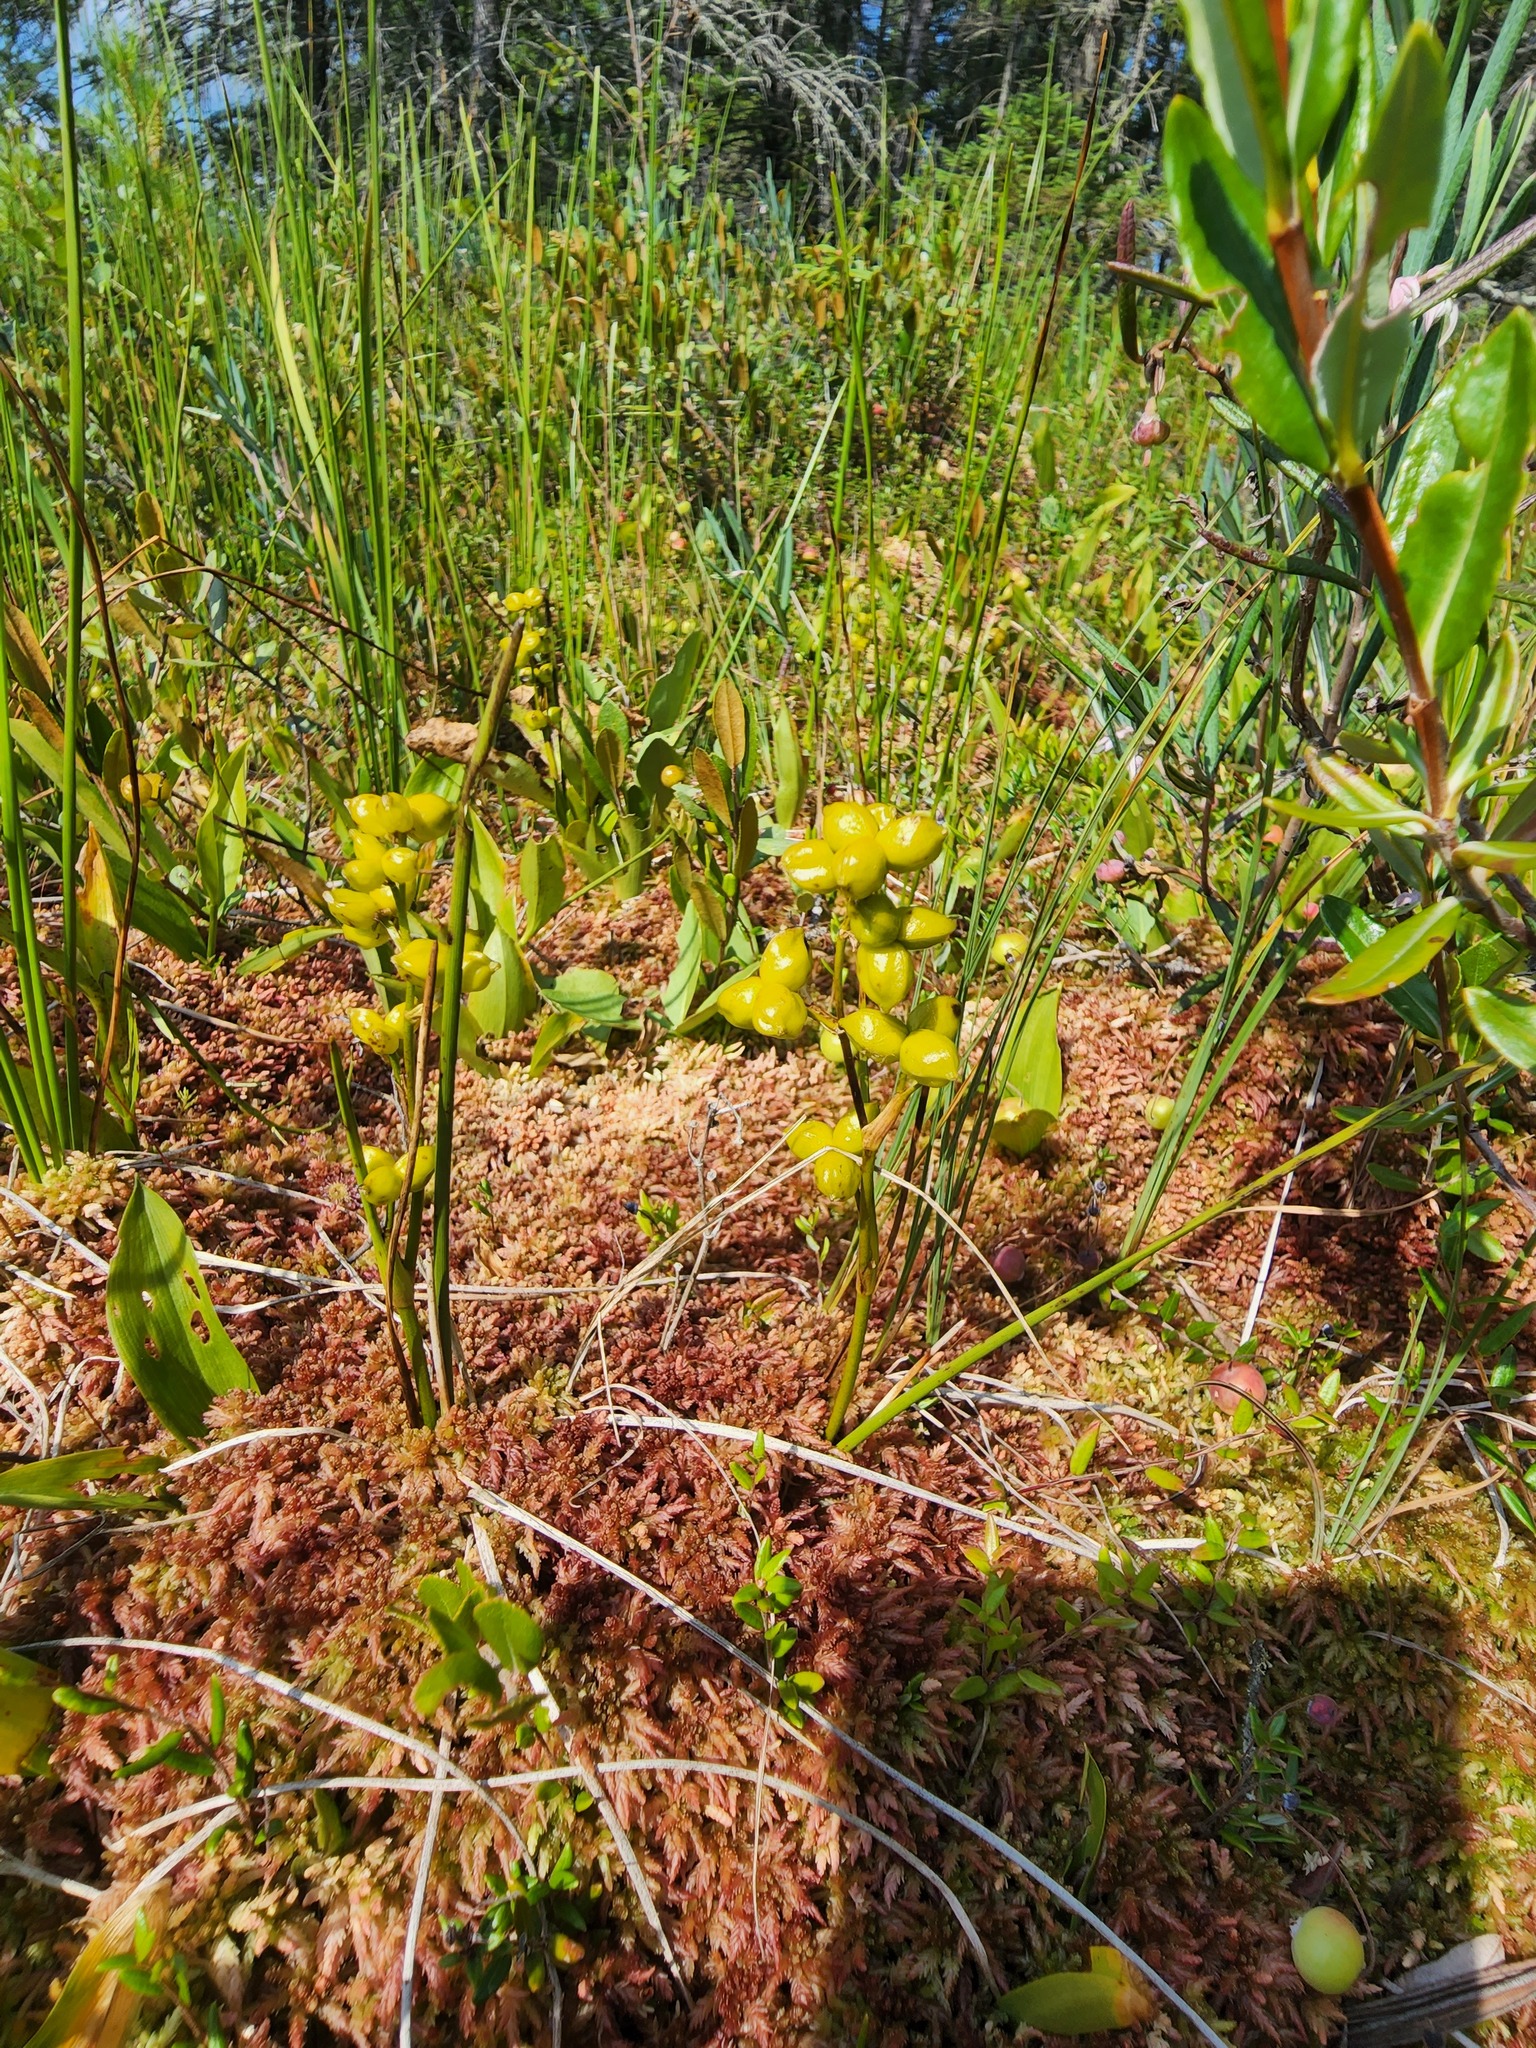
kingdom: Plantae
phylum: Tracheophyta
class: Liliopsida
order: Alismatales
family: Scheuchzeriaceae
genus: Scheuchzeria
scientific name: Scheuchzeria palustris
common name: Rannoch-rush
